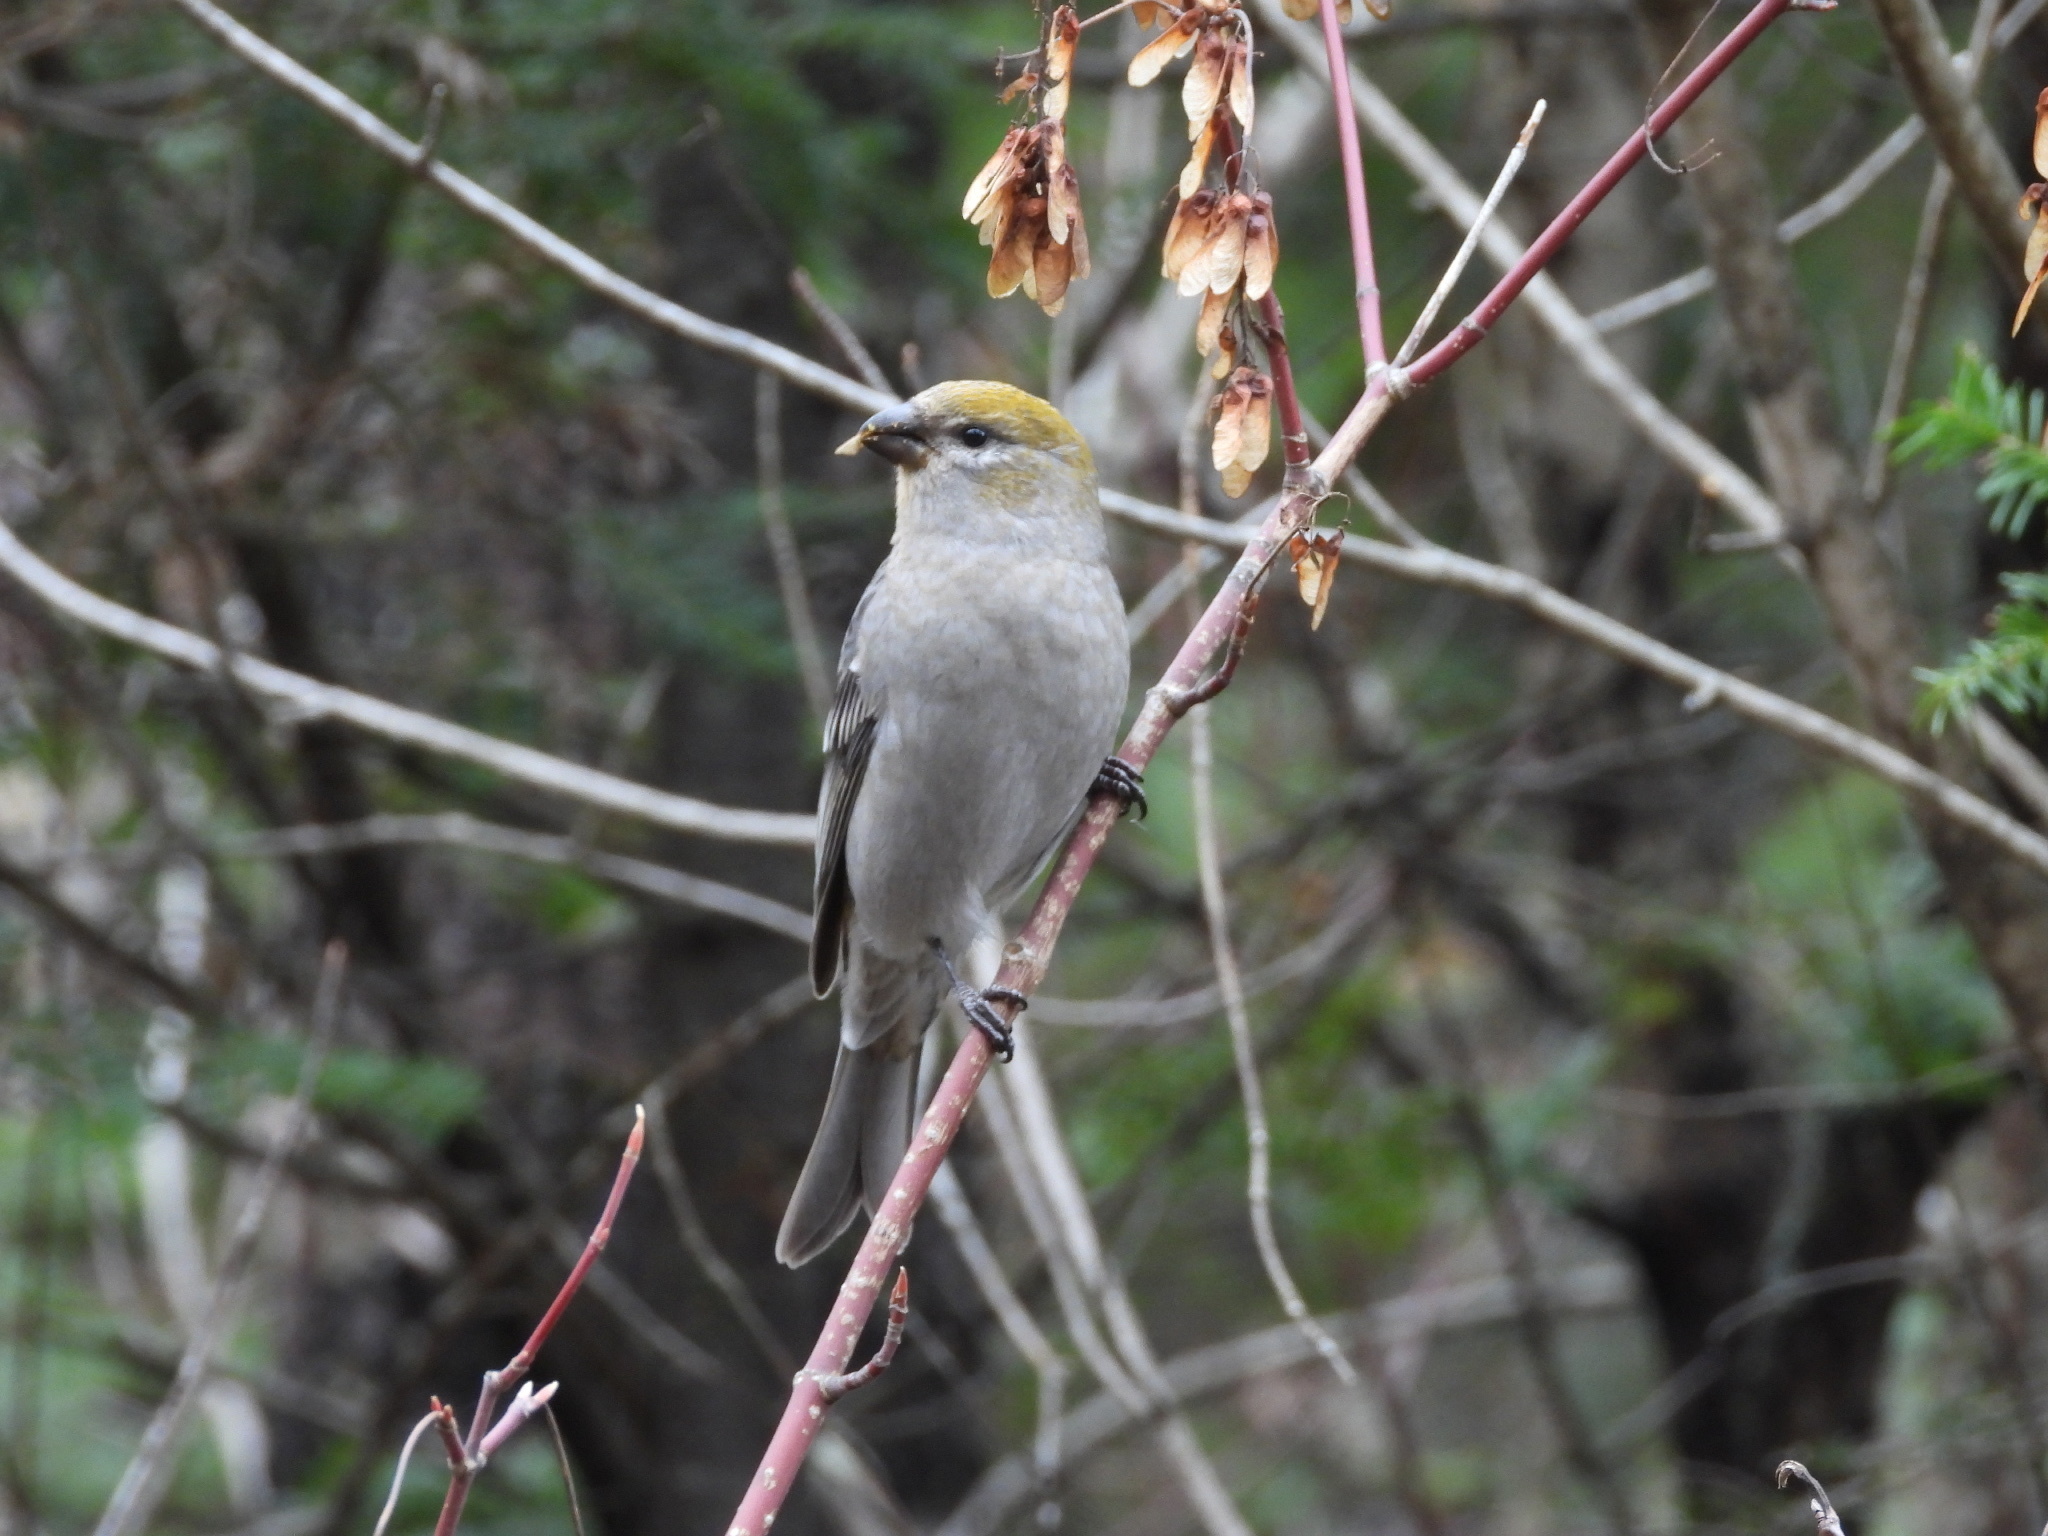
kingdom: Animalia
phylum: Chordata
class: Aves
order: Passeriformes
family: Fringillidae
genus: Pinicola
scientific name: Pinicola enucleator
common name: Pine grosbeak
